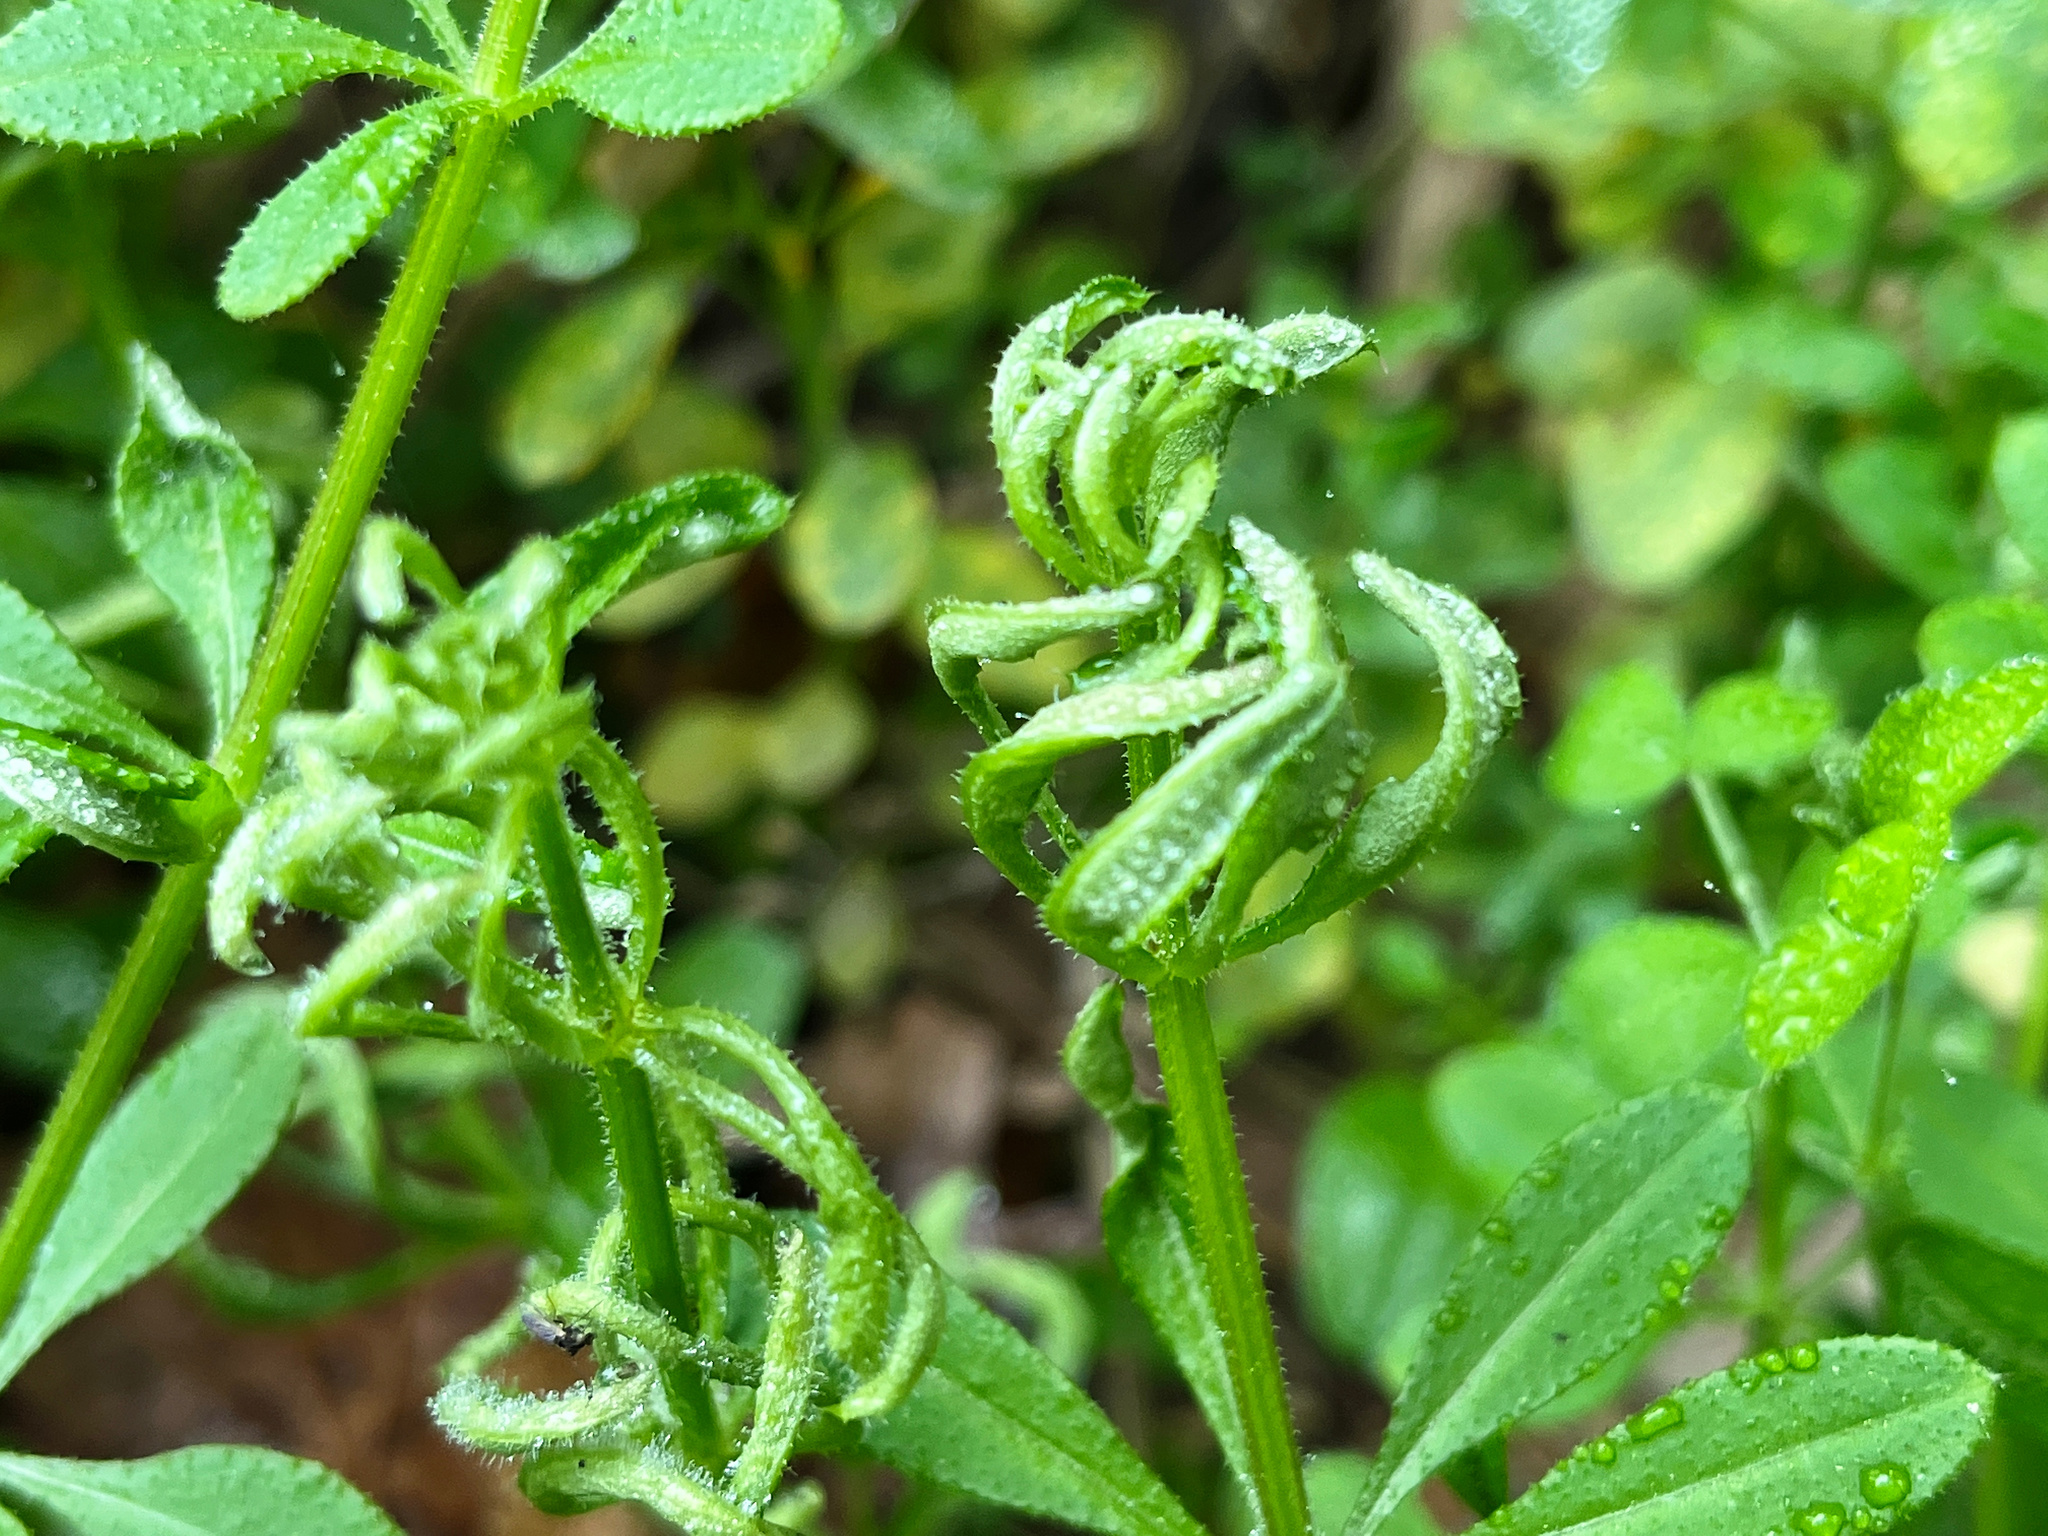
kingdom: Animalia
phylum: Arthropoda
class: Arachnida
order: Trombidiformes
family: Eriophyidae
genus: Cecidophyes
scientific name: Cecidophyes rouhollahi
